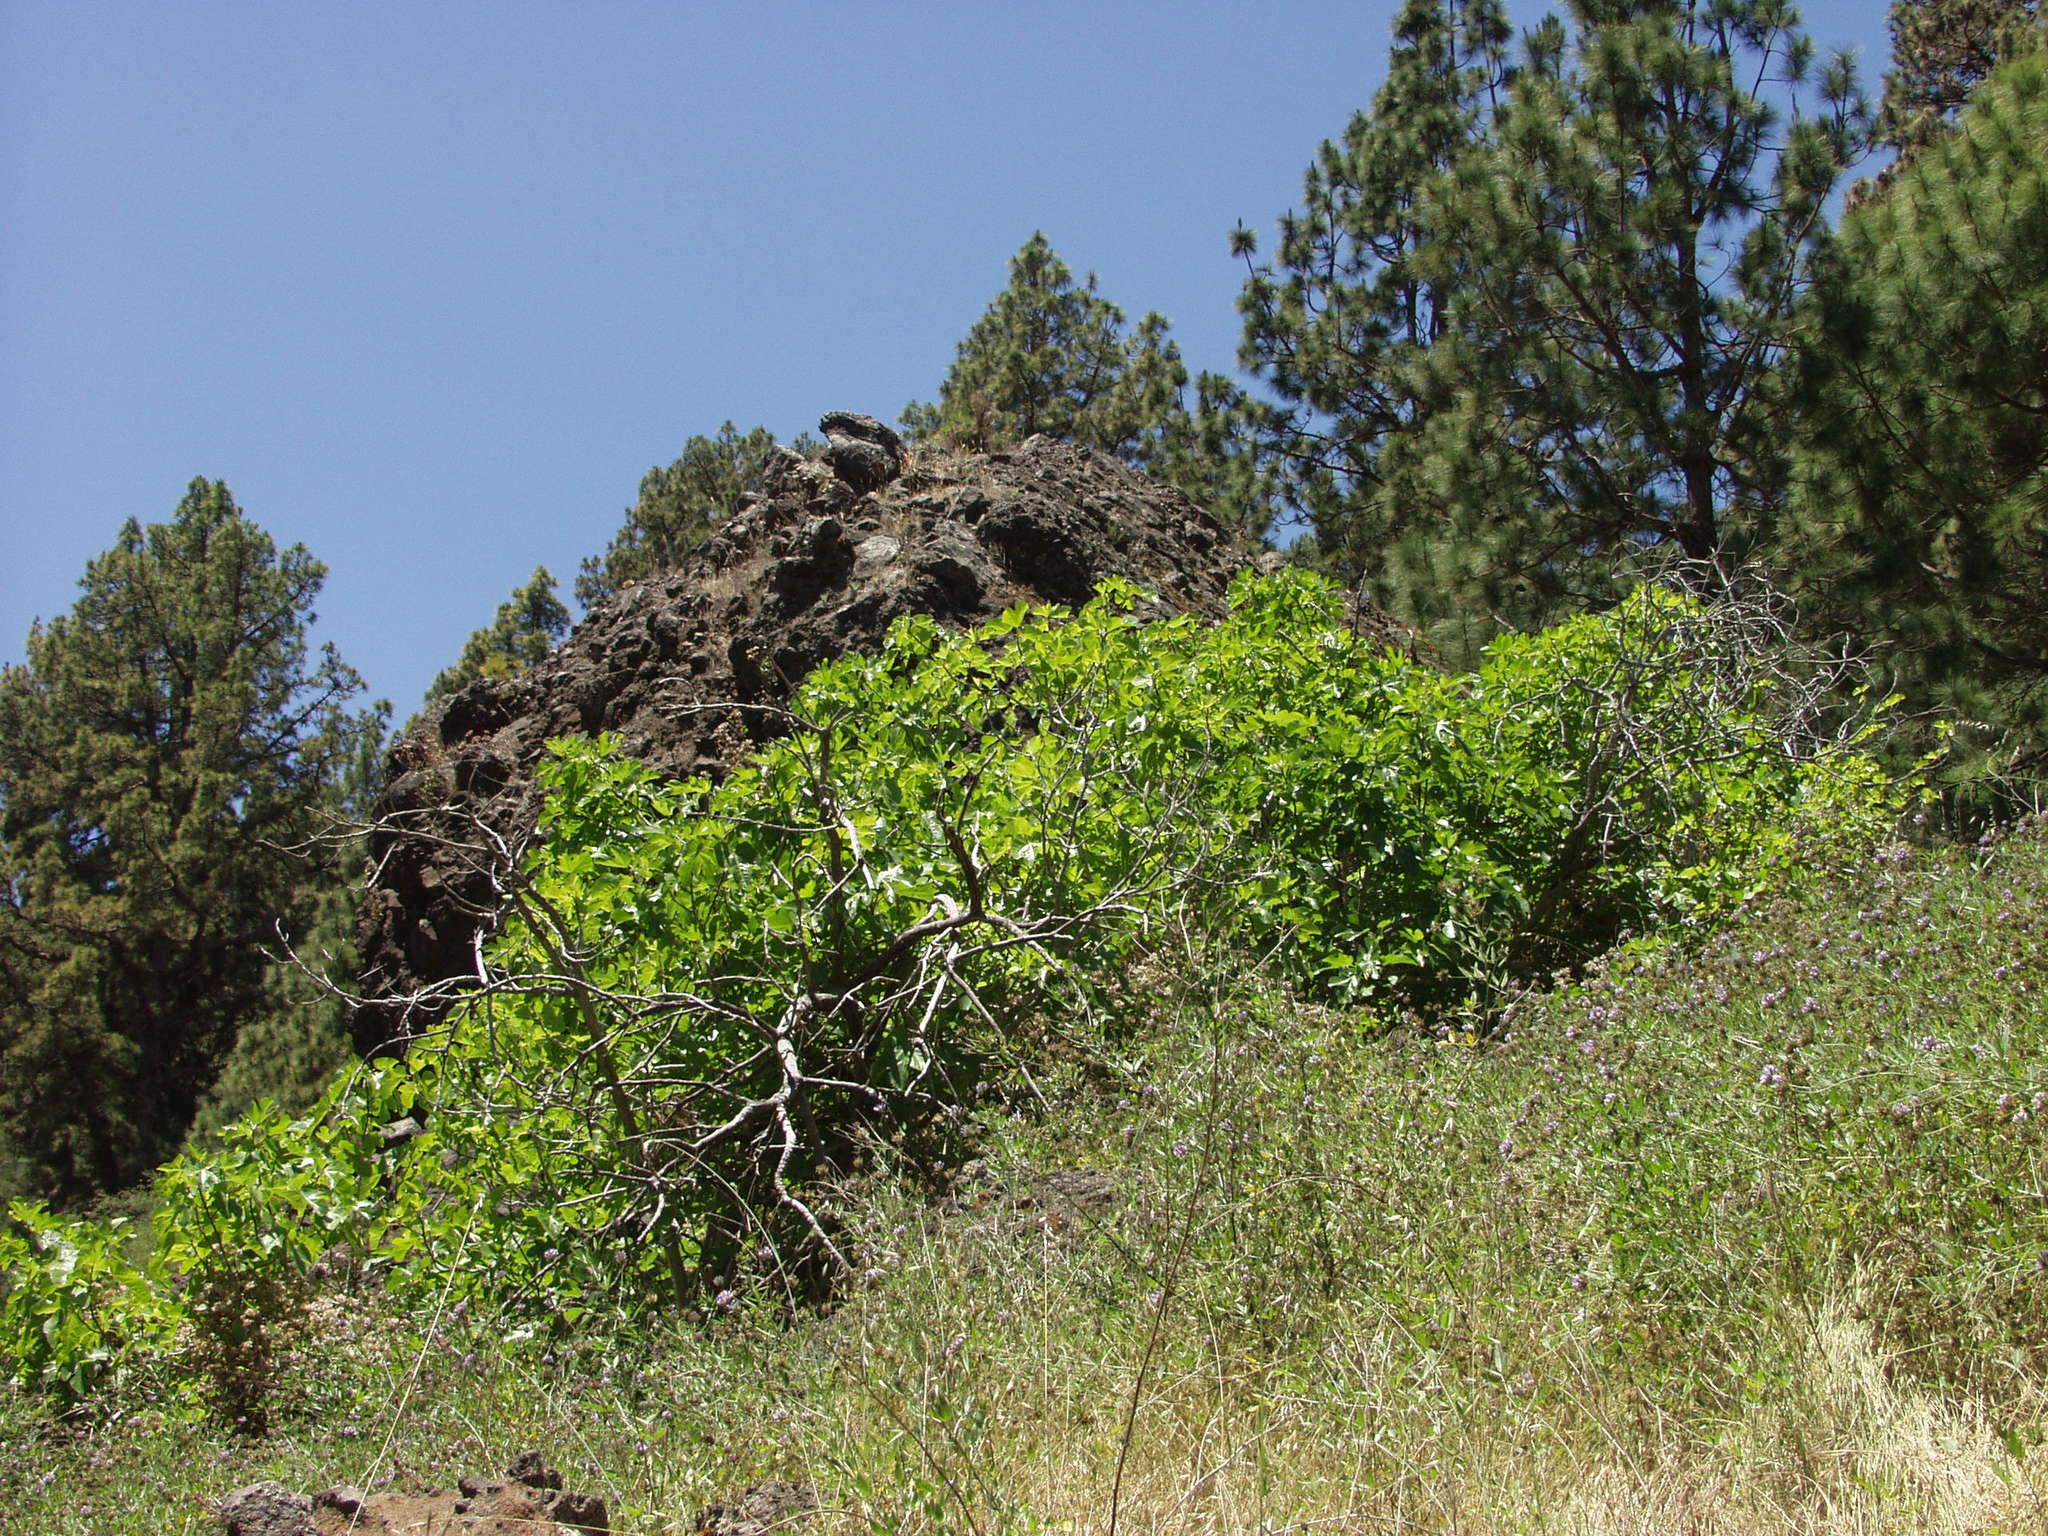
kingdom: Plantae
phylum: Tracheophyta
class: Magnoliopsida
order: Rosales
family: Moraceae
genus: Ficus
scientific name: Ficus carica
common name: Fig
